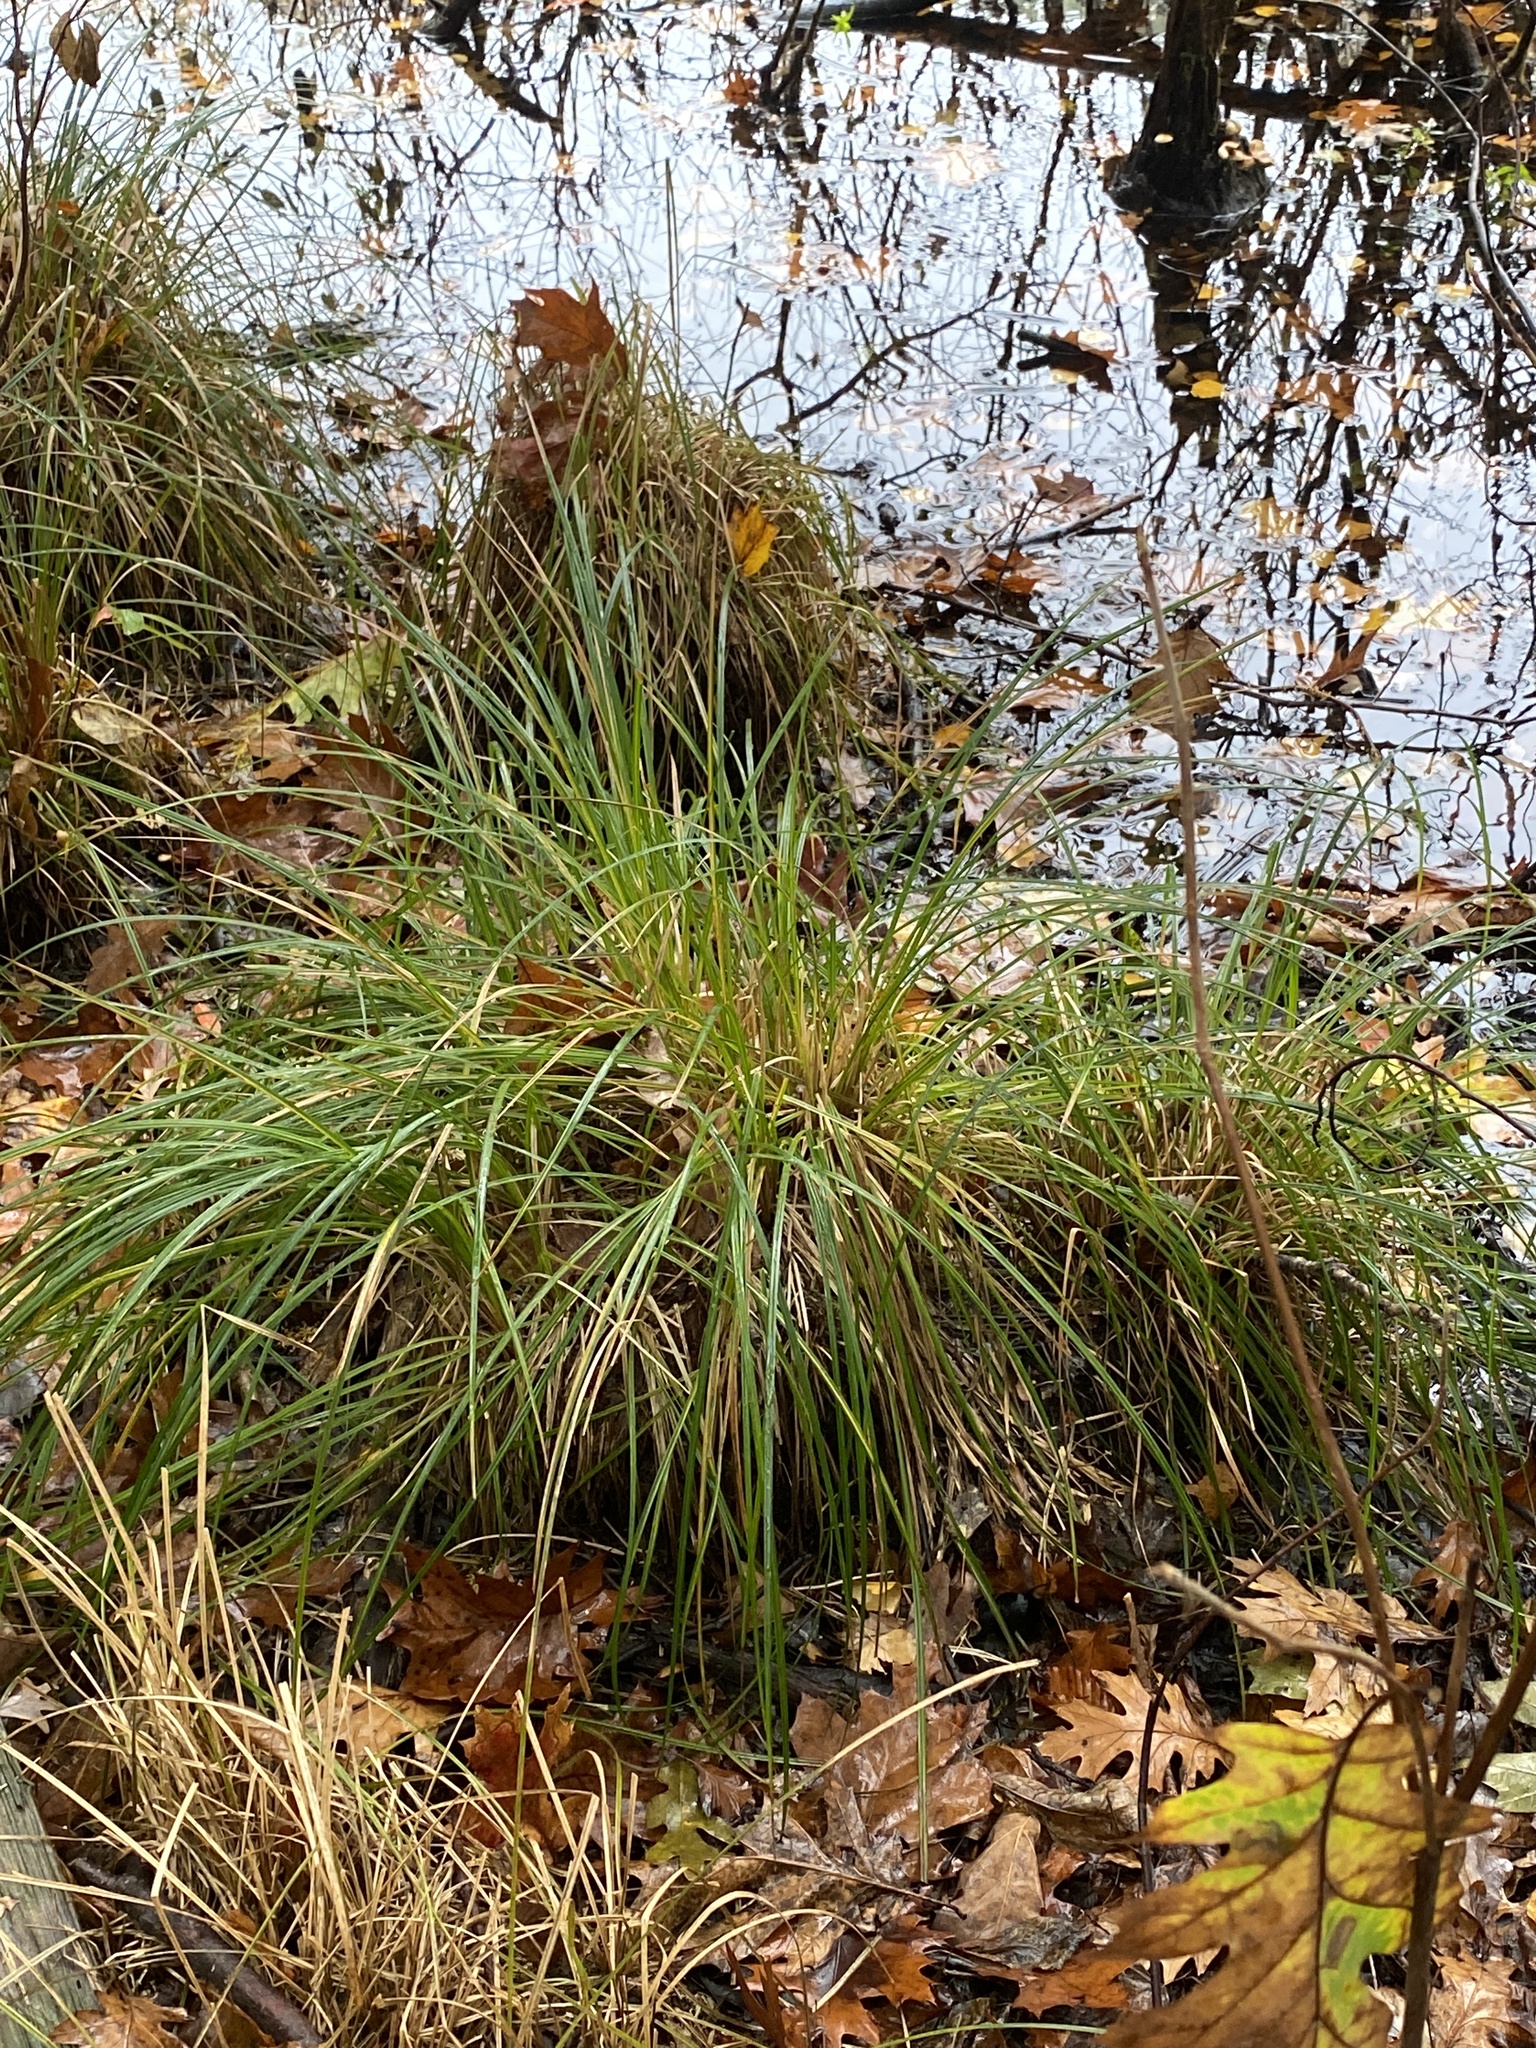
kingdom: Plantae
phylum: Tracheophyta
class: Liliopsida
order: Poales
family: Cyperaceae
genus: Carex
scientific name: Carex stricta
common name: Hummock sedge
